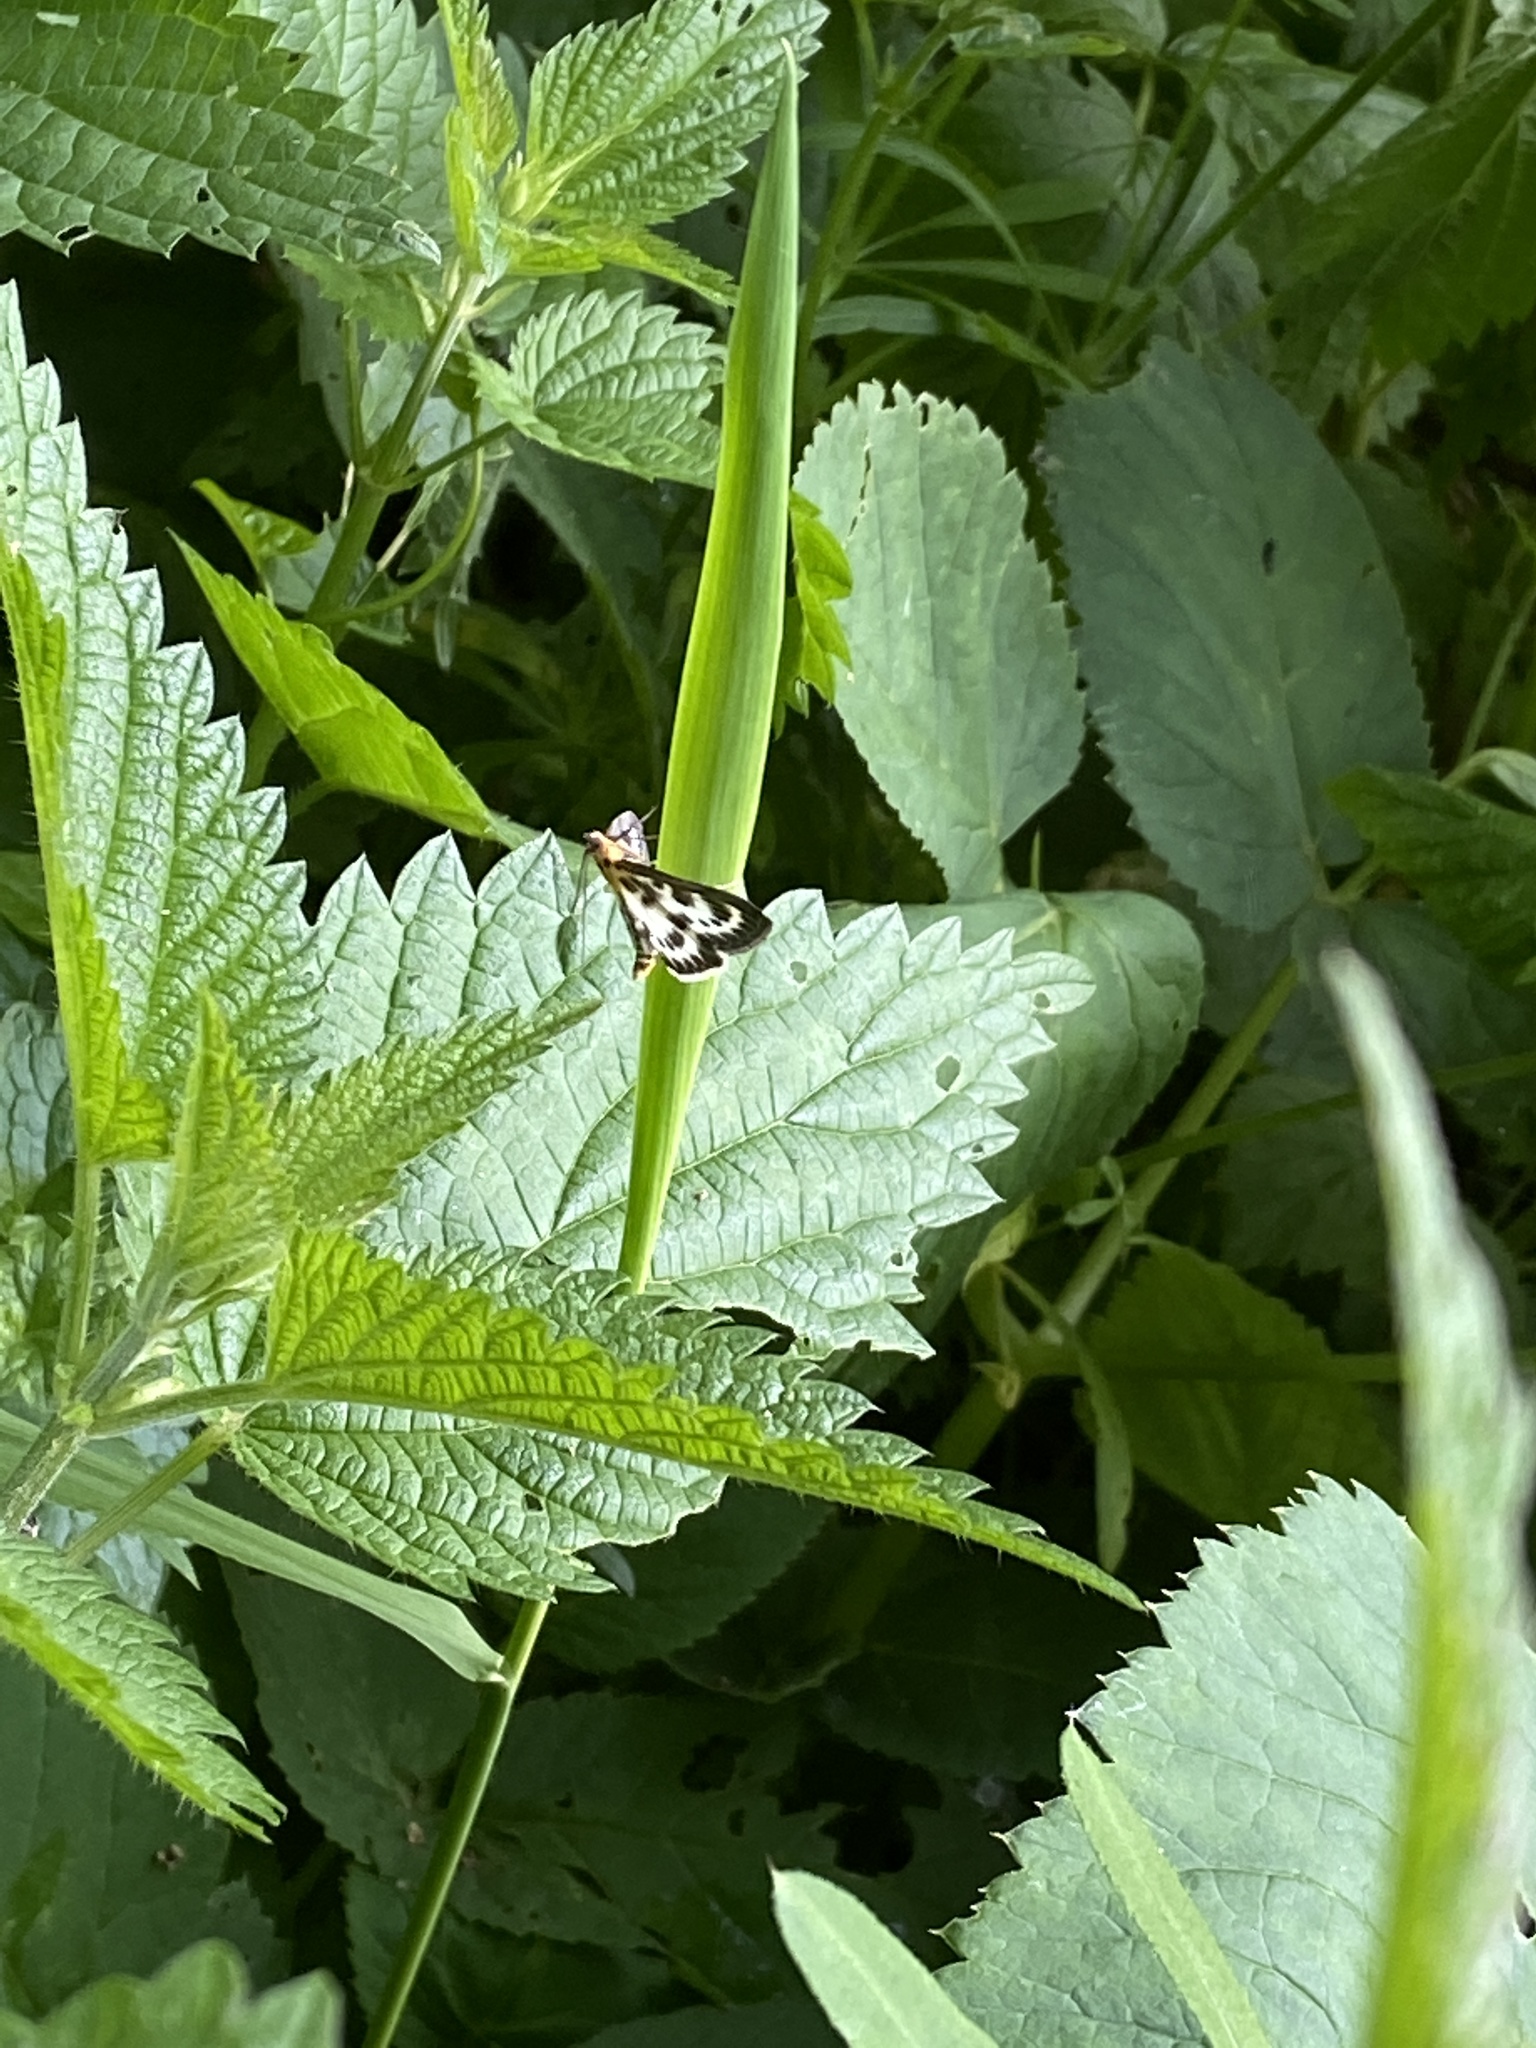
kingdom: Animalia
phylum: Arthropoda
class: Insecta
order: Lepidoptera
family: Crambidae
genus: Anania
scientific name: Anania hortulata
